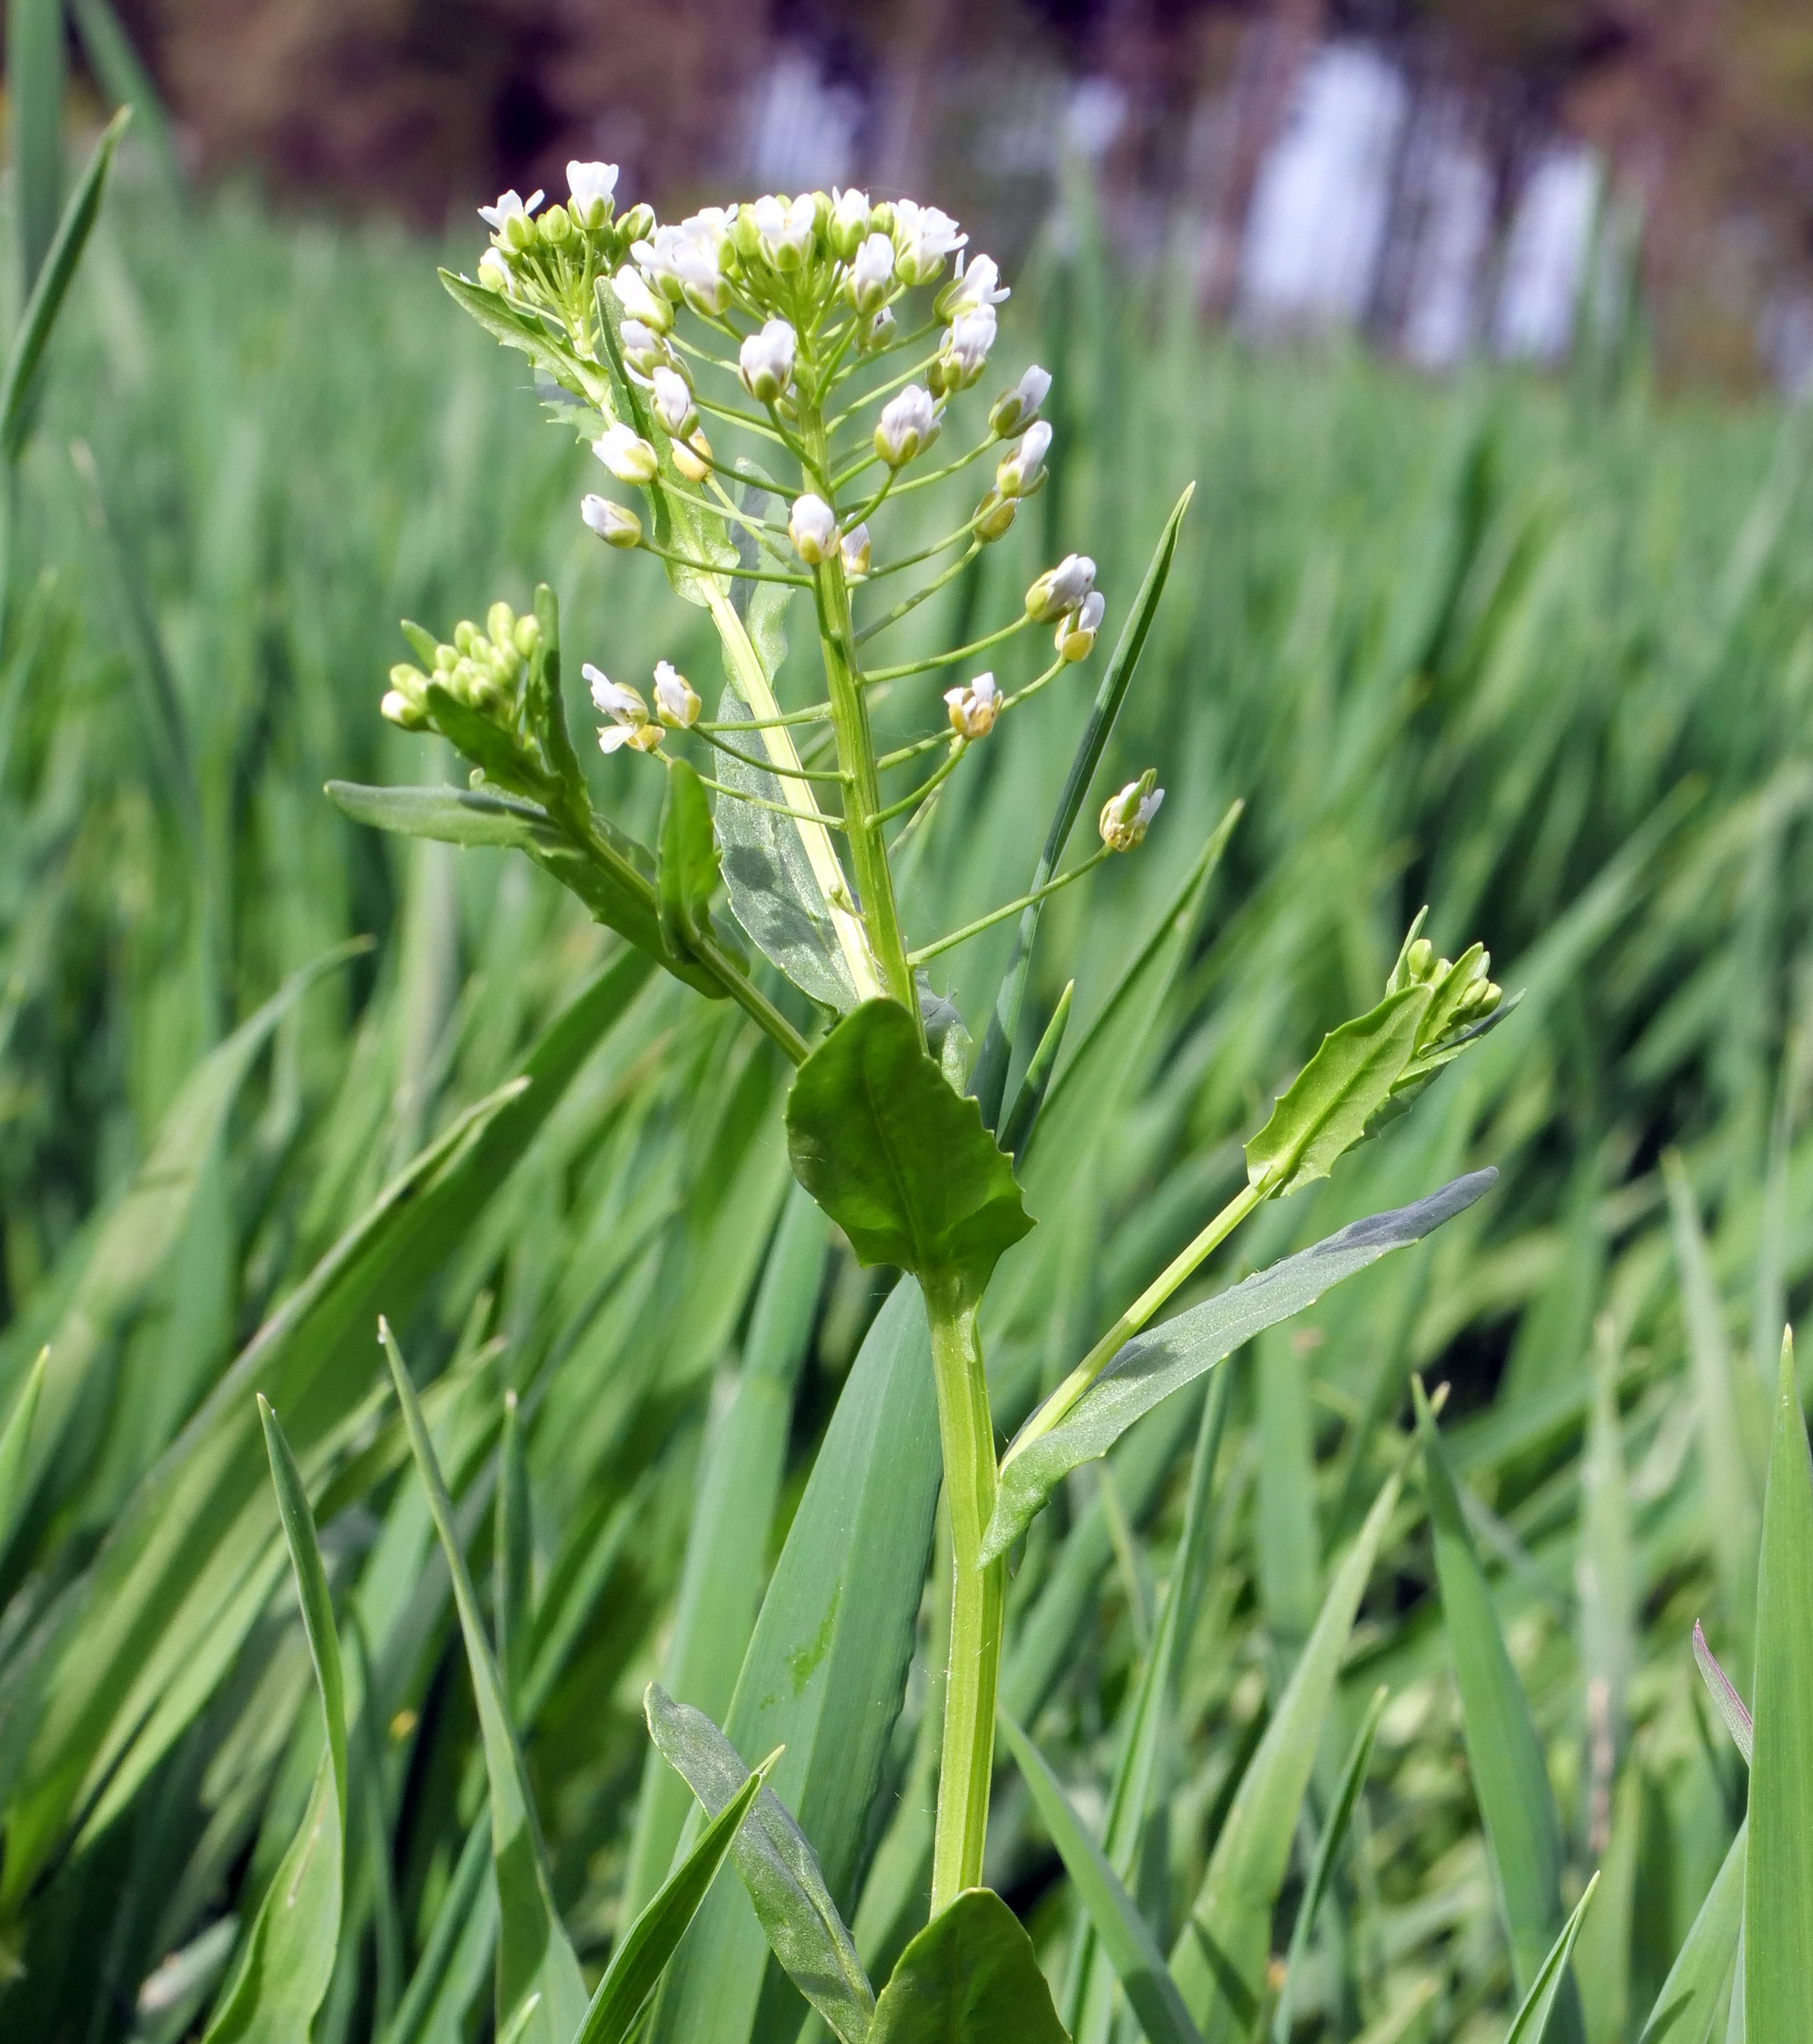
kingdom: Plantae
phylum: Tracheophyta
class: Magnoliopsida
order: Brassicales
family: Brassicaceae
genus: Thlaspi
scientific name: Thlaspi arvense
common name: Field pennycress
